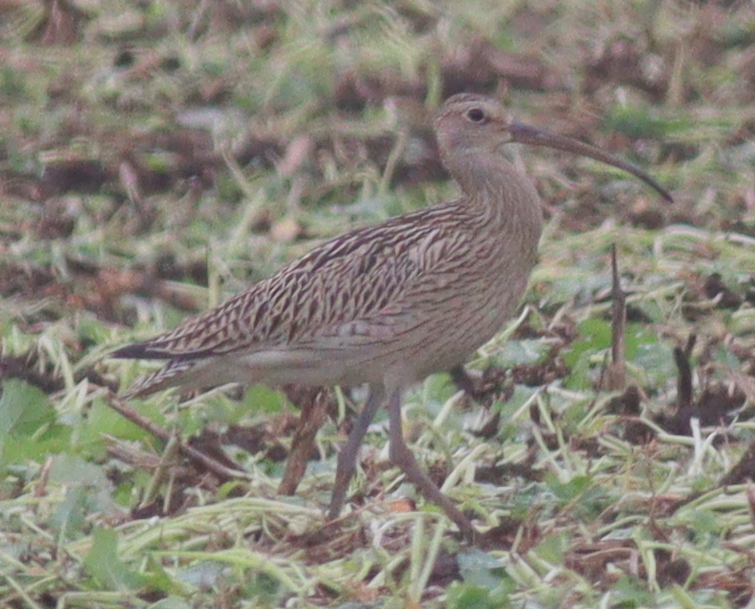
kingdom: Animalia
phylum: Chordata
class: Aves
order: Charadriiformes
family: Scolopacidae
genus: Numenius
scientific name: Numenius arquata
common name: Eurasian curlew
